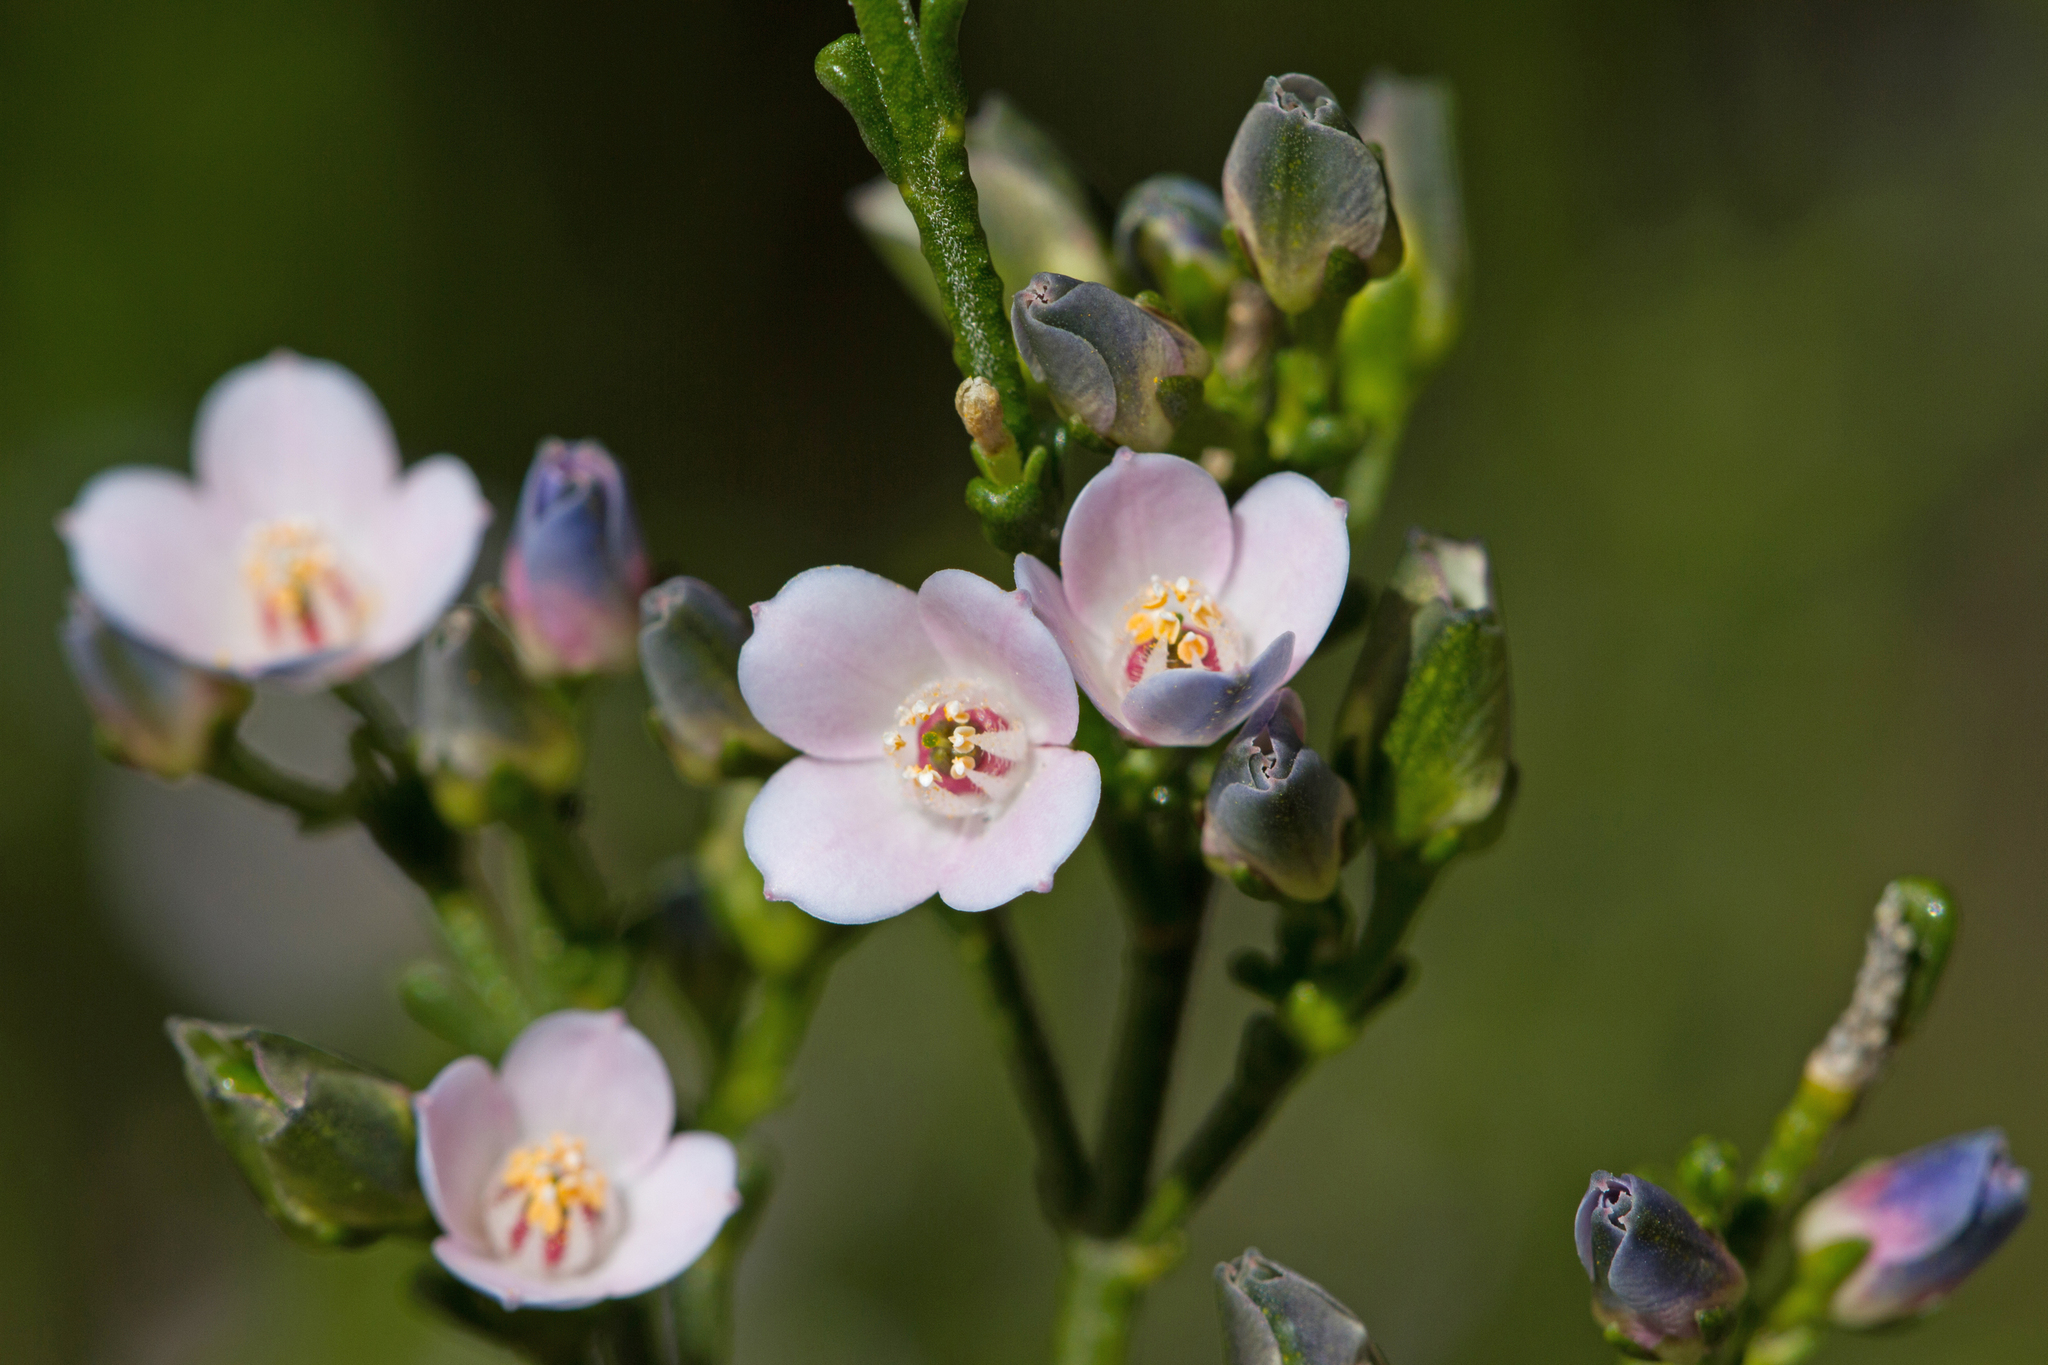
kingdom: Plantae
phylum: Tracheophyta
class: Magnoliopsida
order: Sapindales
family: Rutaceae
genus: Cyanothamnus
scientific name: Cyanothamnus coerulescens
